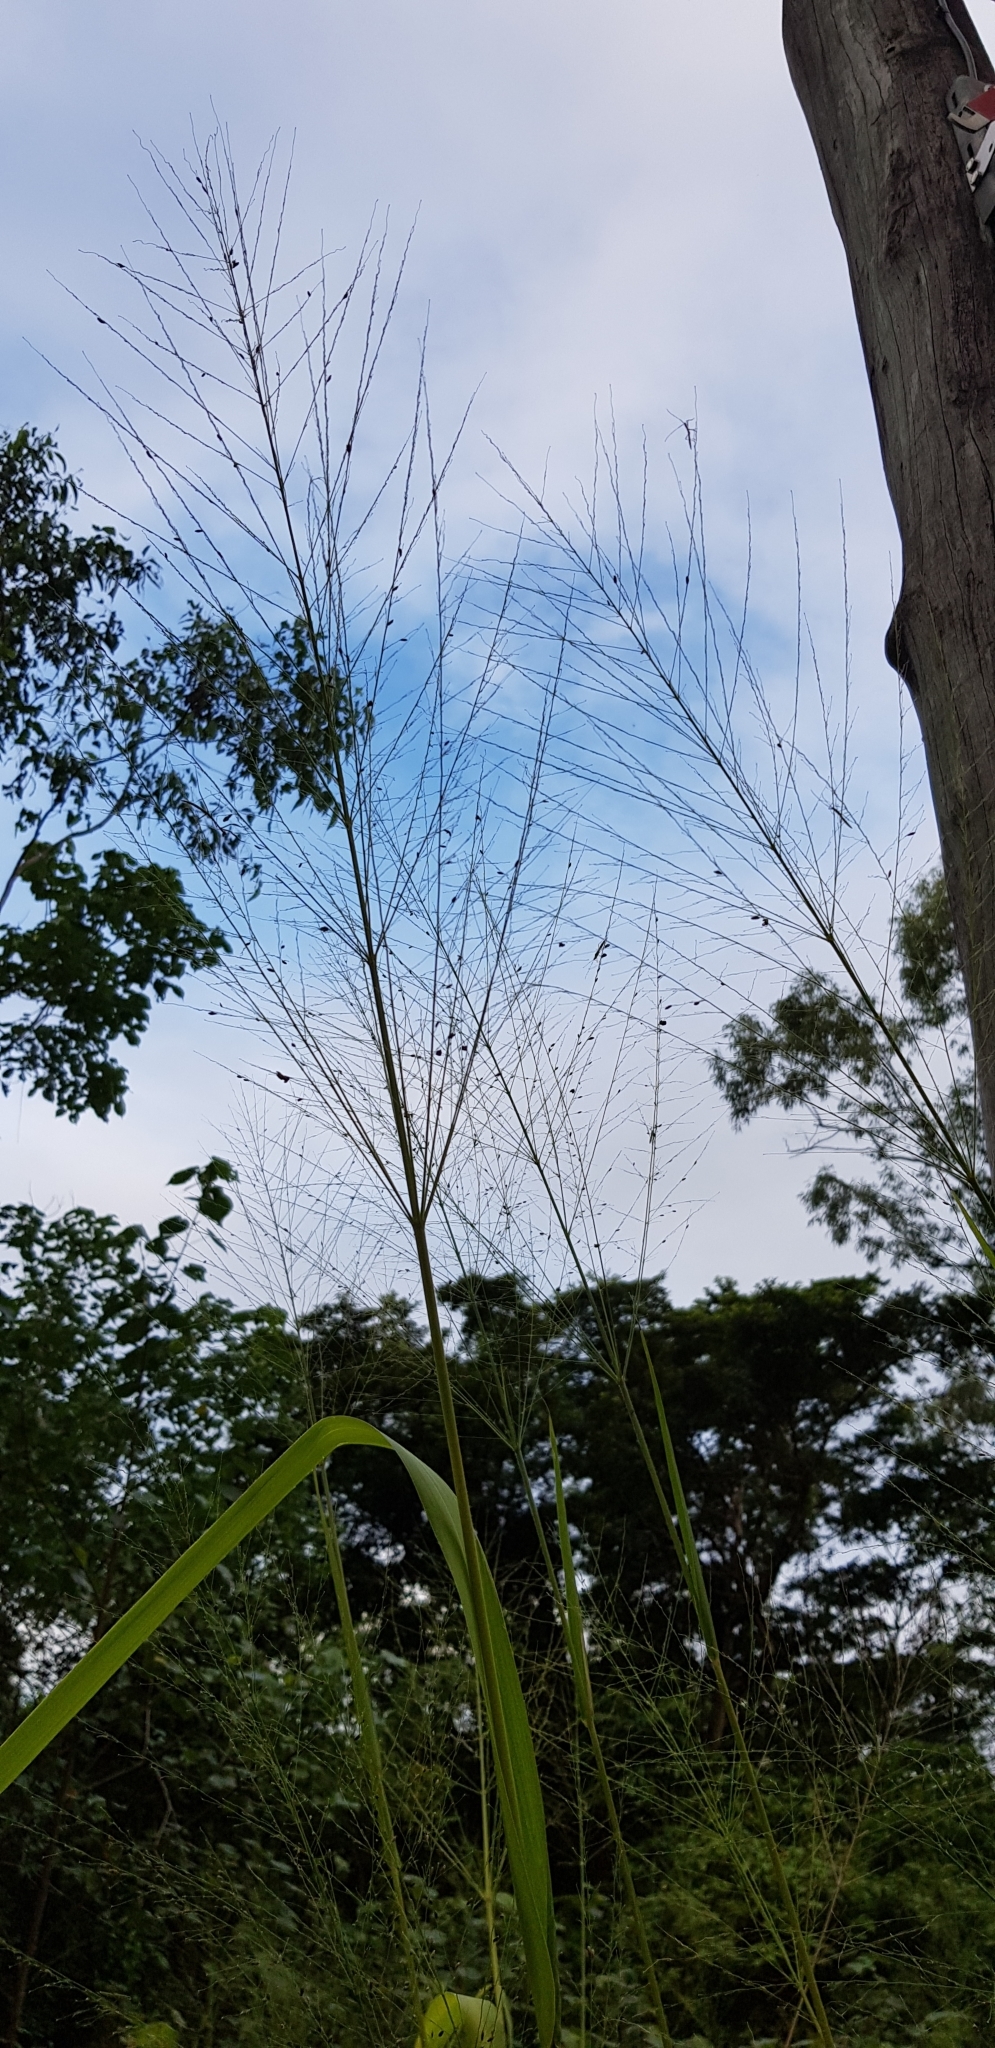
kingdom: Plantae
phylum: Tracheophyta
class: Liliopsida
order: Poales
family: Poaceae
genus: Megathyrsus
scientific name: Megathyrsus maximus
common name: Guineagrass
